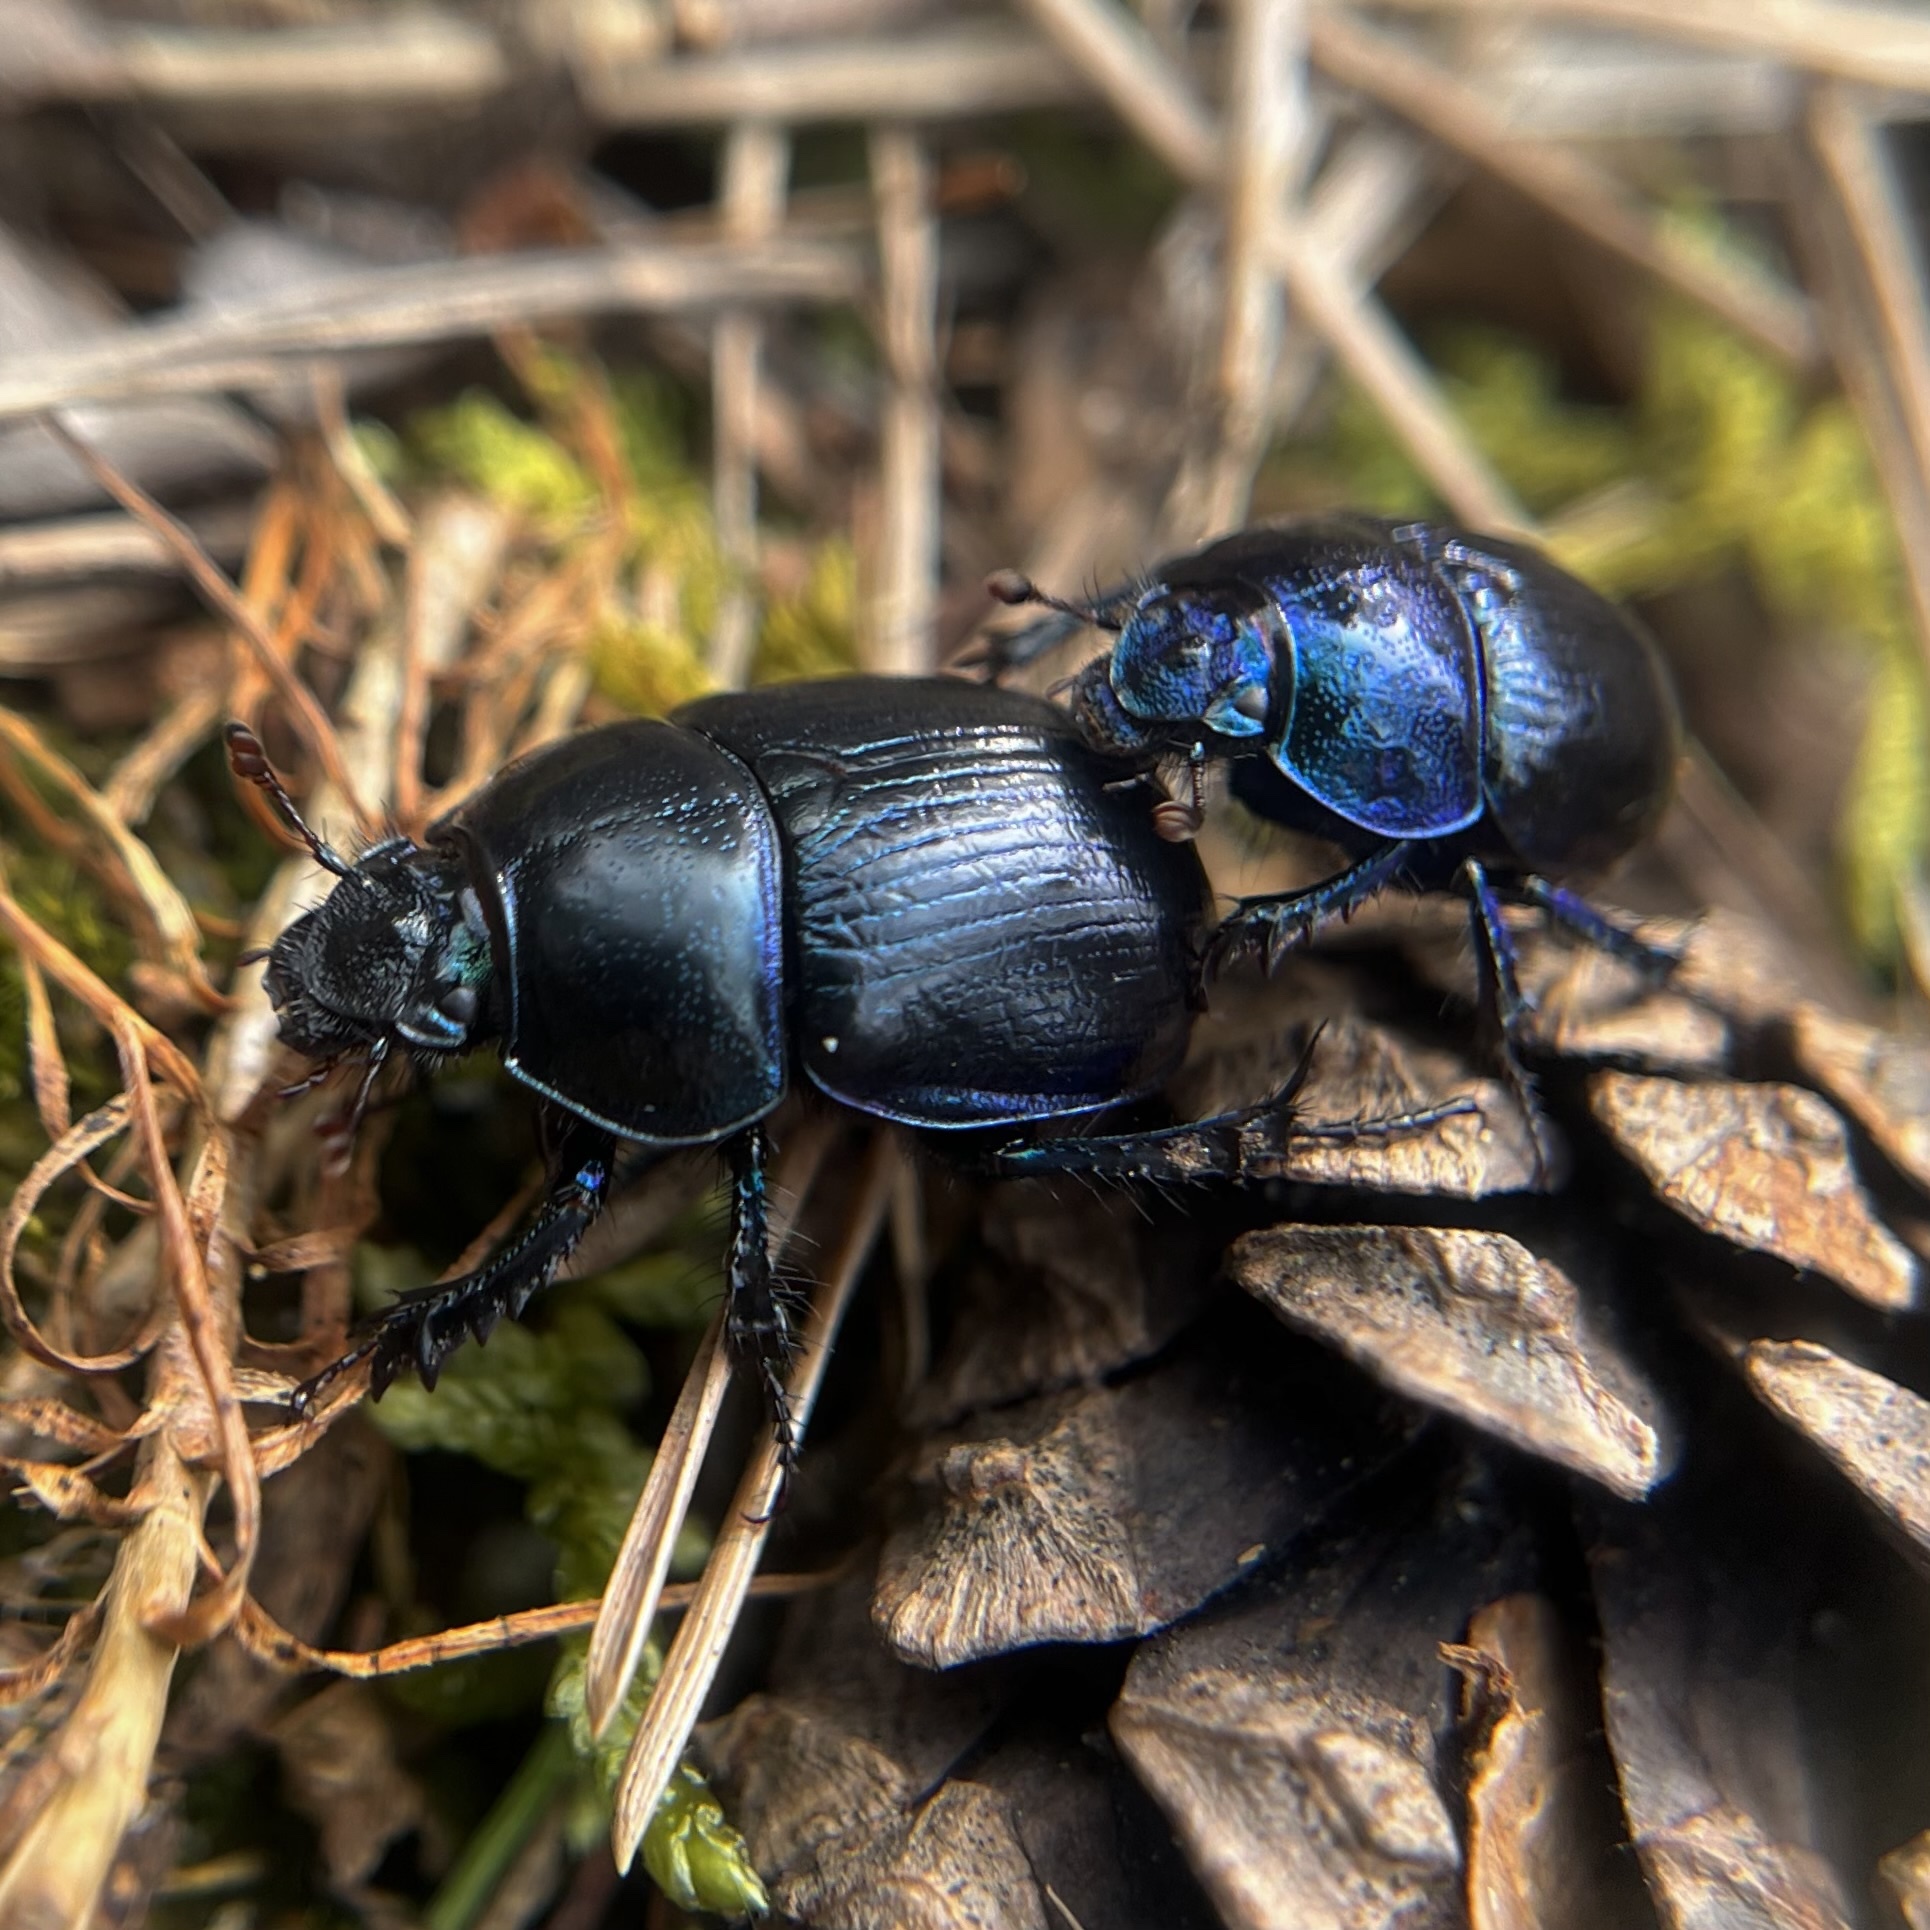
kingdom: Animalia
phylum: Arthropoda
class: Insecta
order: Coleoptera
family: Geotrupidae
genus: Anoplotrupes
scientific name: Anoplotrupes stercorosus
